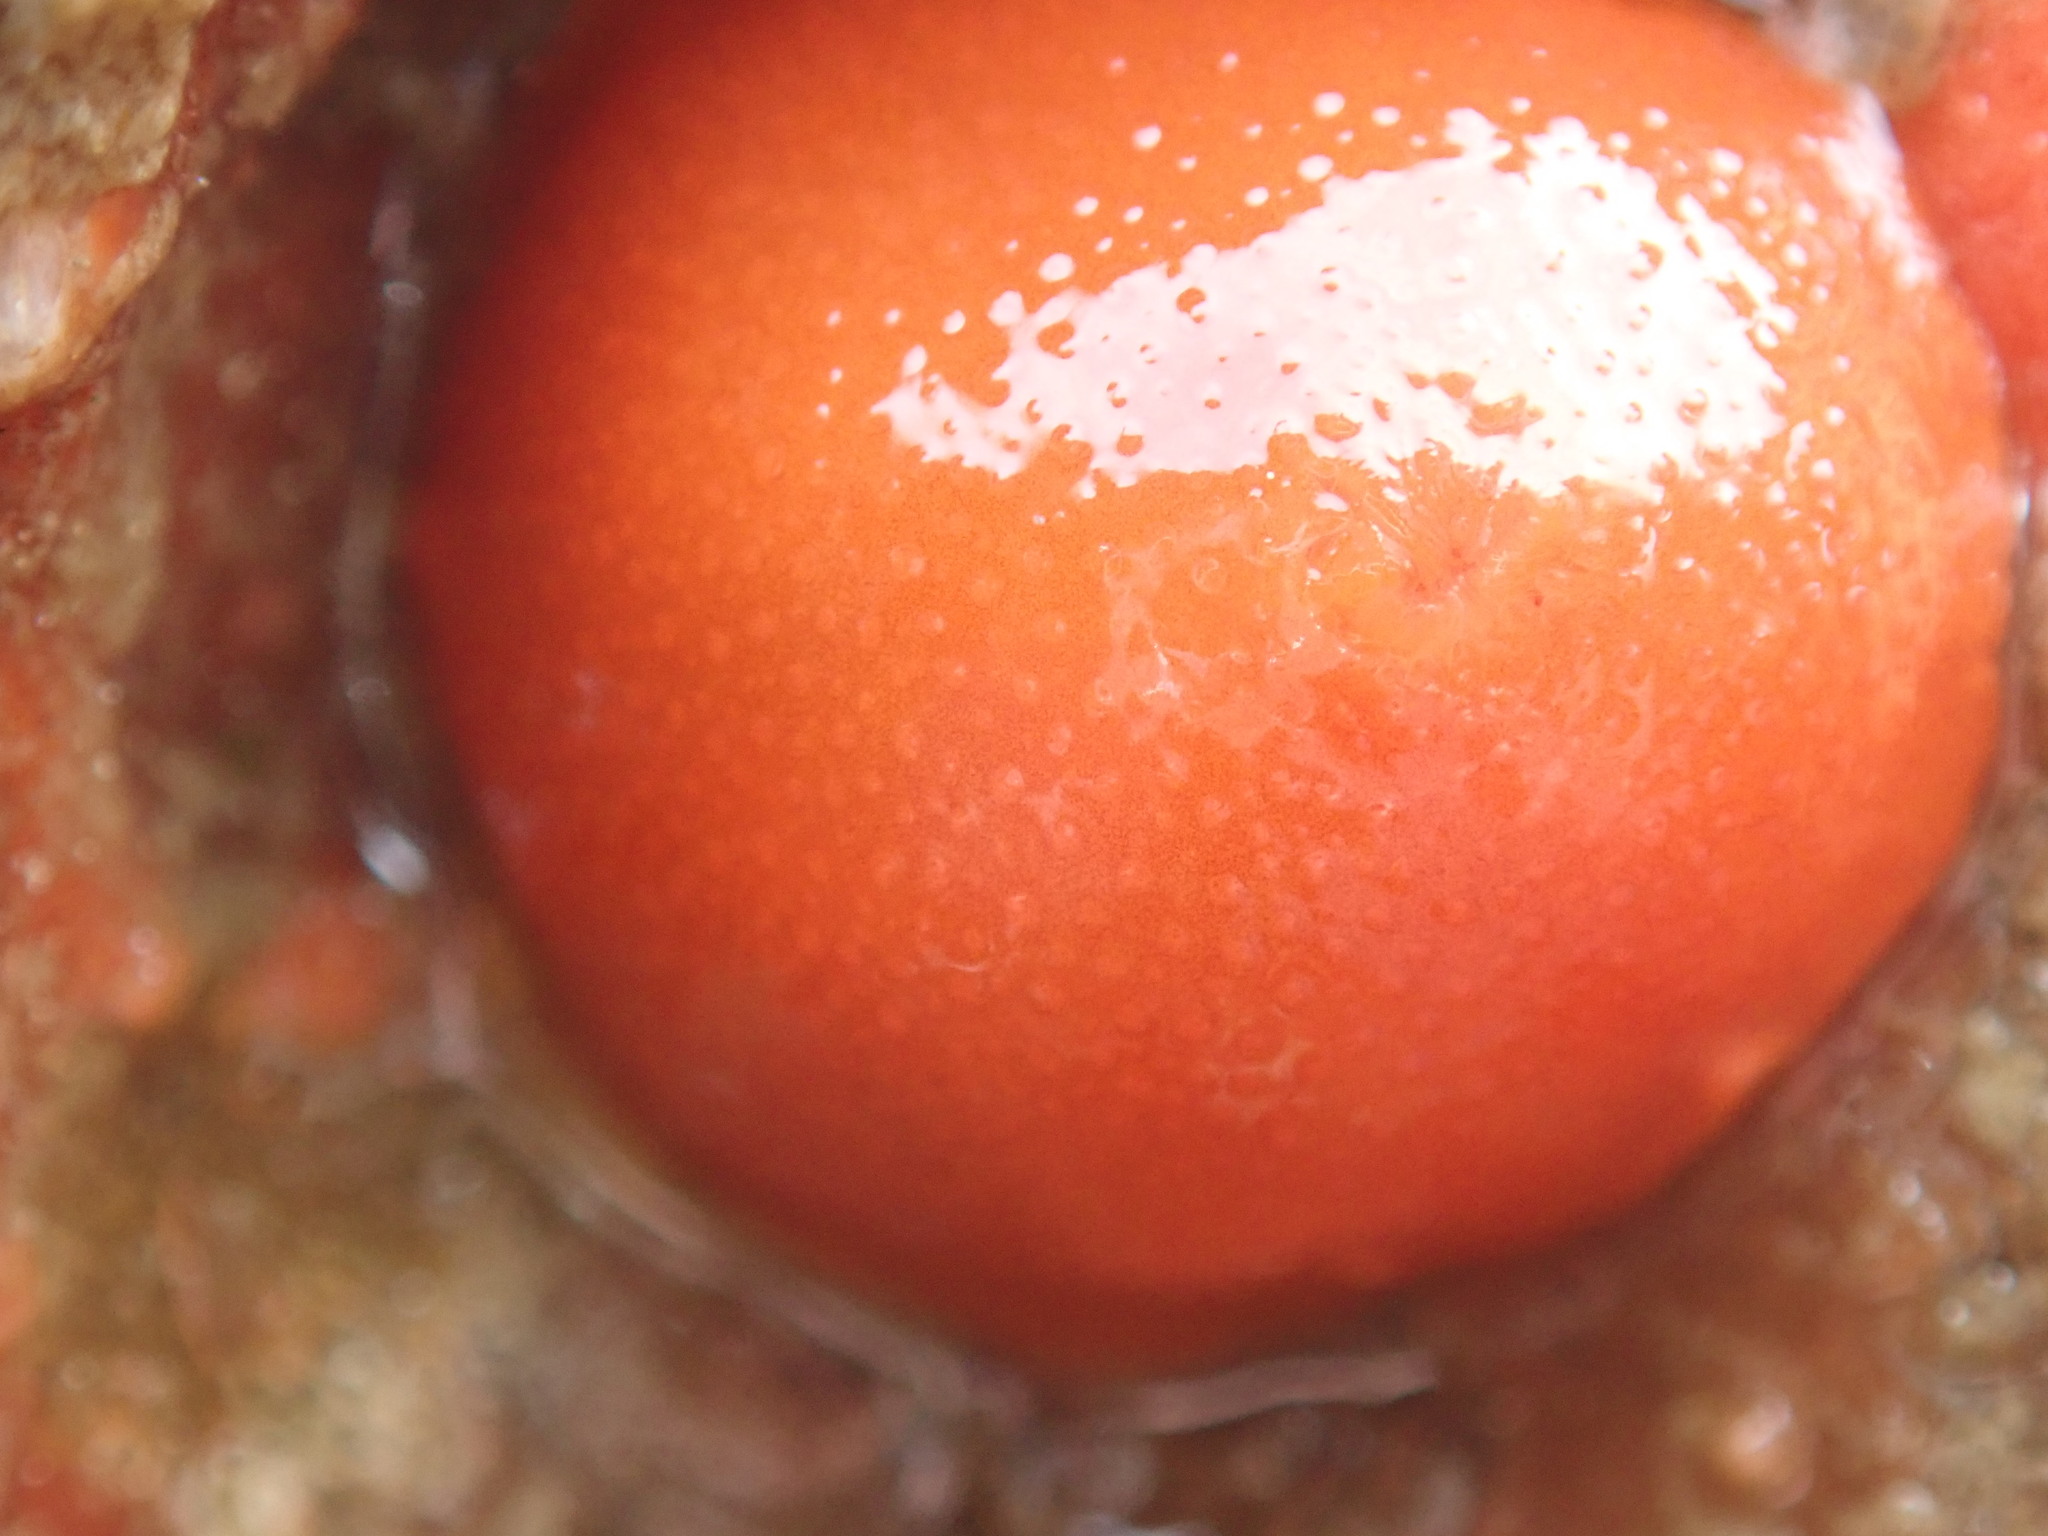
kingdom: Animalia
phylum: Mollusca
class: Gastropoda
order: Nudibranchia
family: Cadlinidae
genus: Aldisa
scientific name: Aldisa sanguinea
